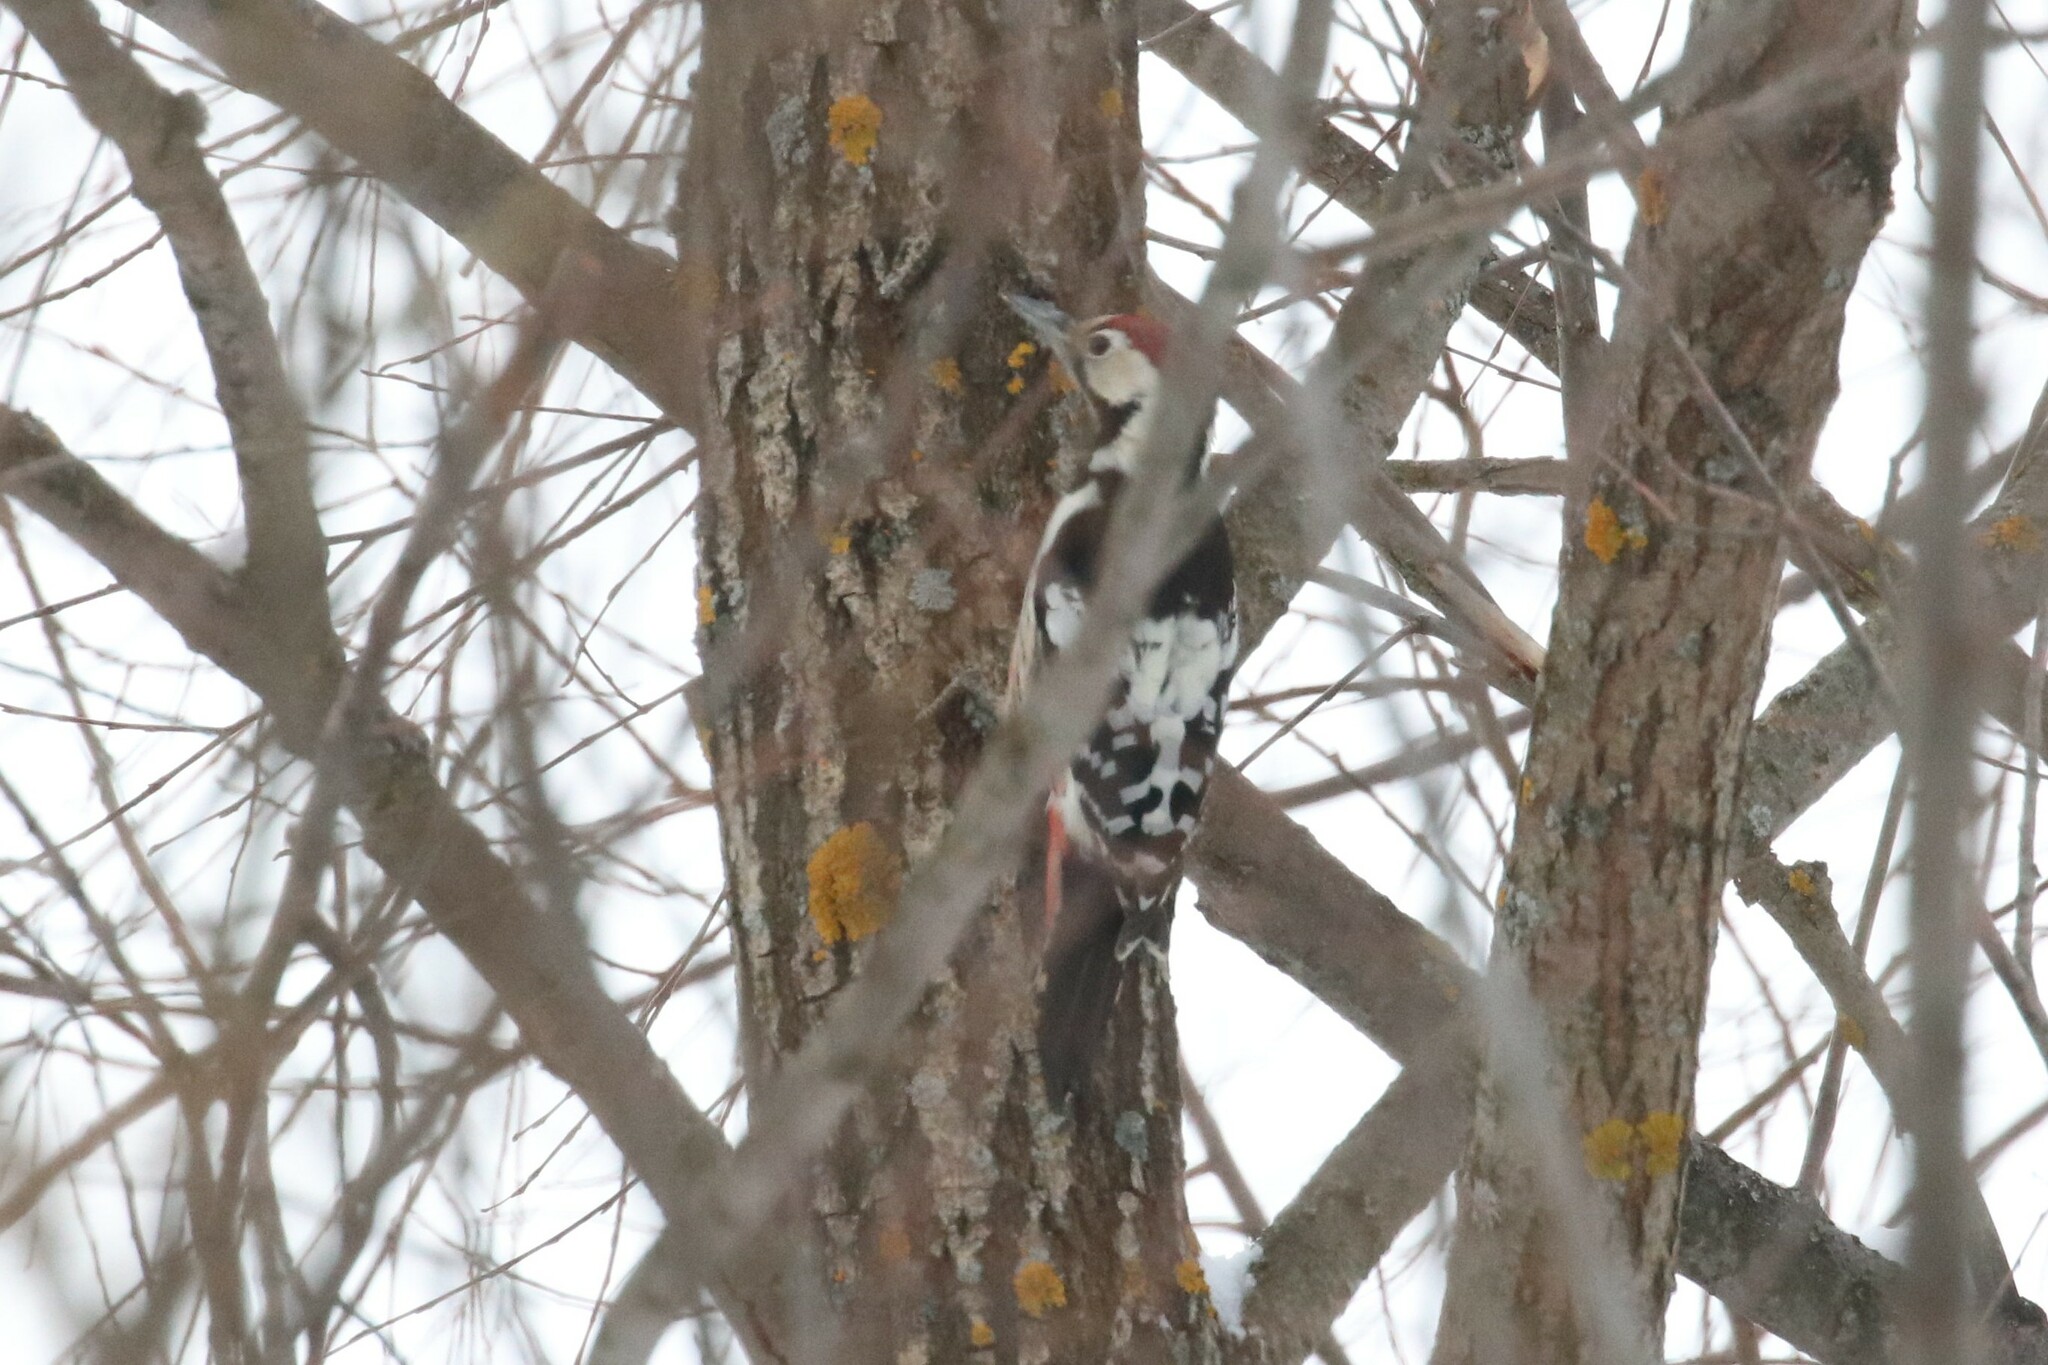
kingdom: Animalia
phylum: Chordata
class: Aves
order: Piciformes
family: Picidae
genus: Dendrocopos
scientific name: Dendrocopos leucotos
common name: White-backed woodpecker
